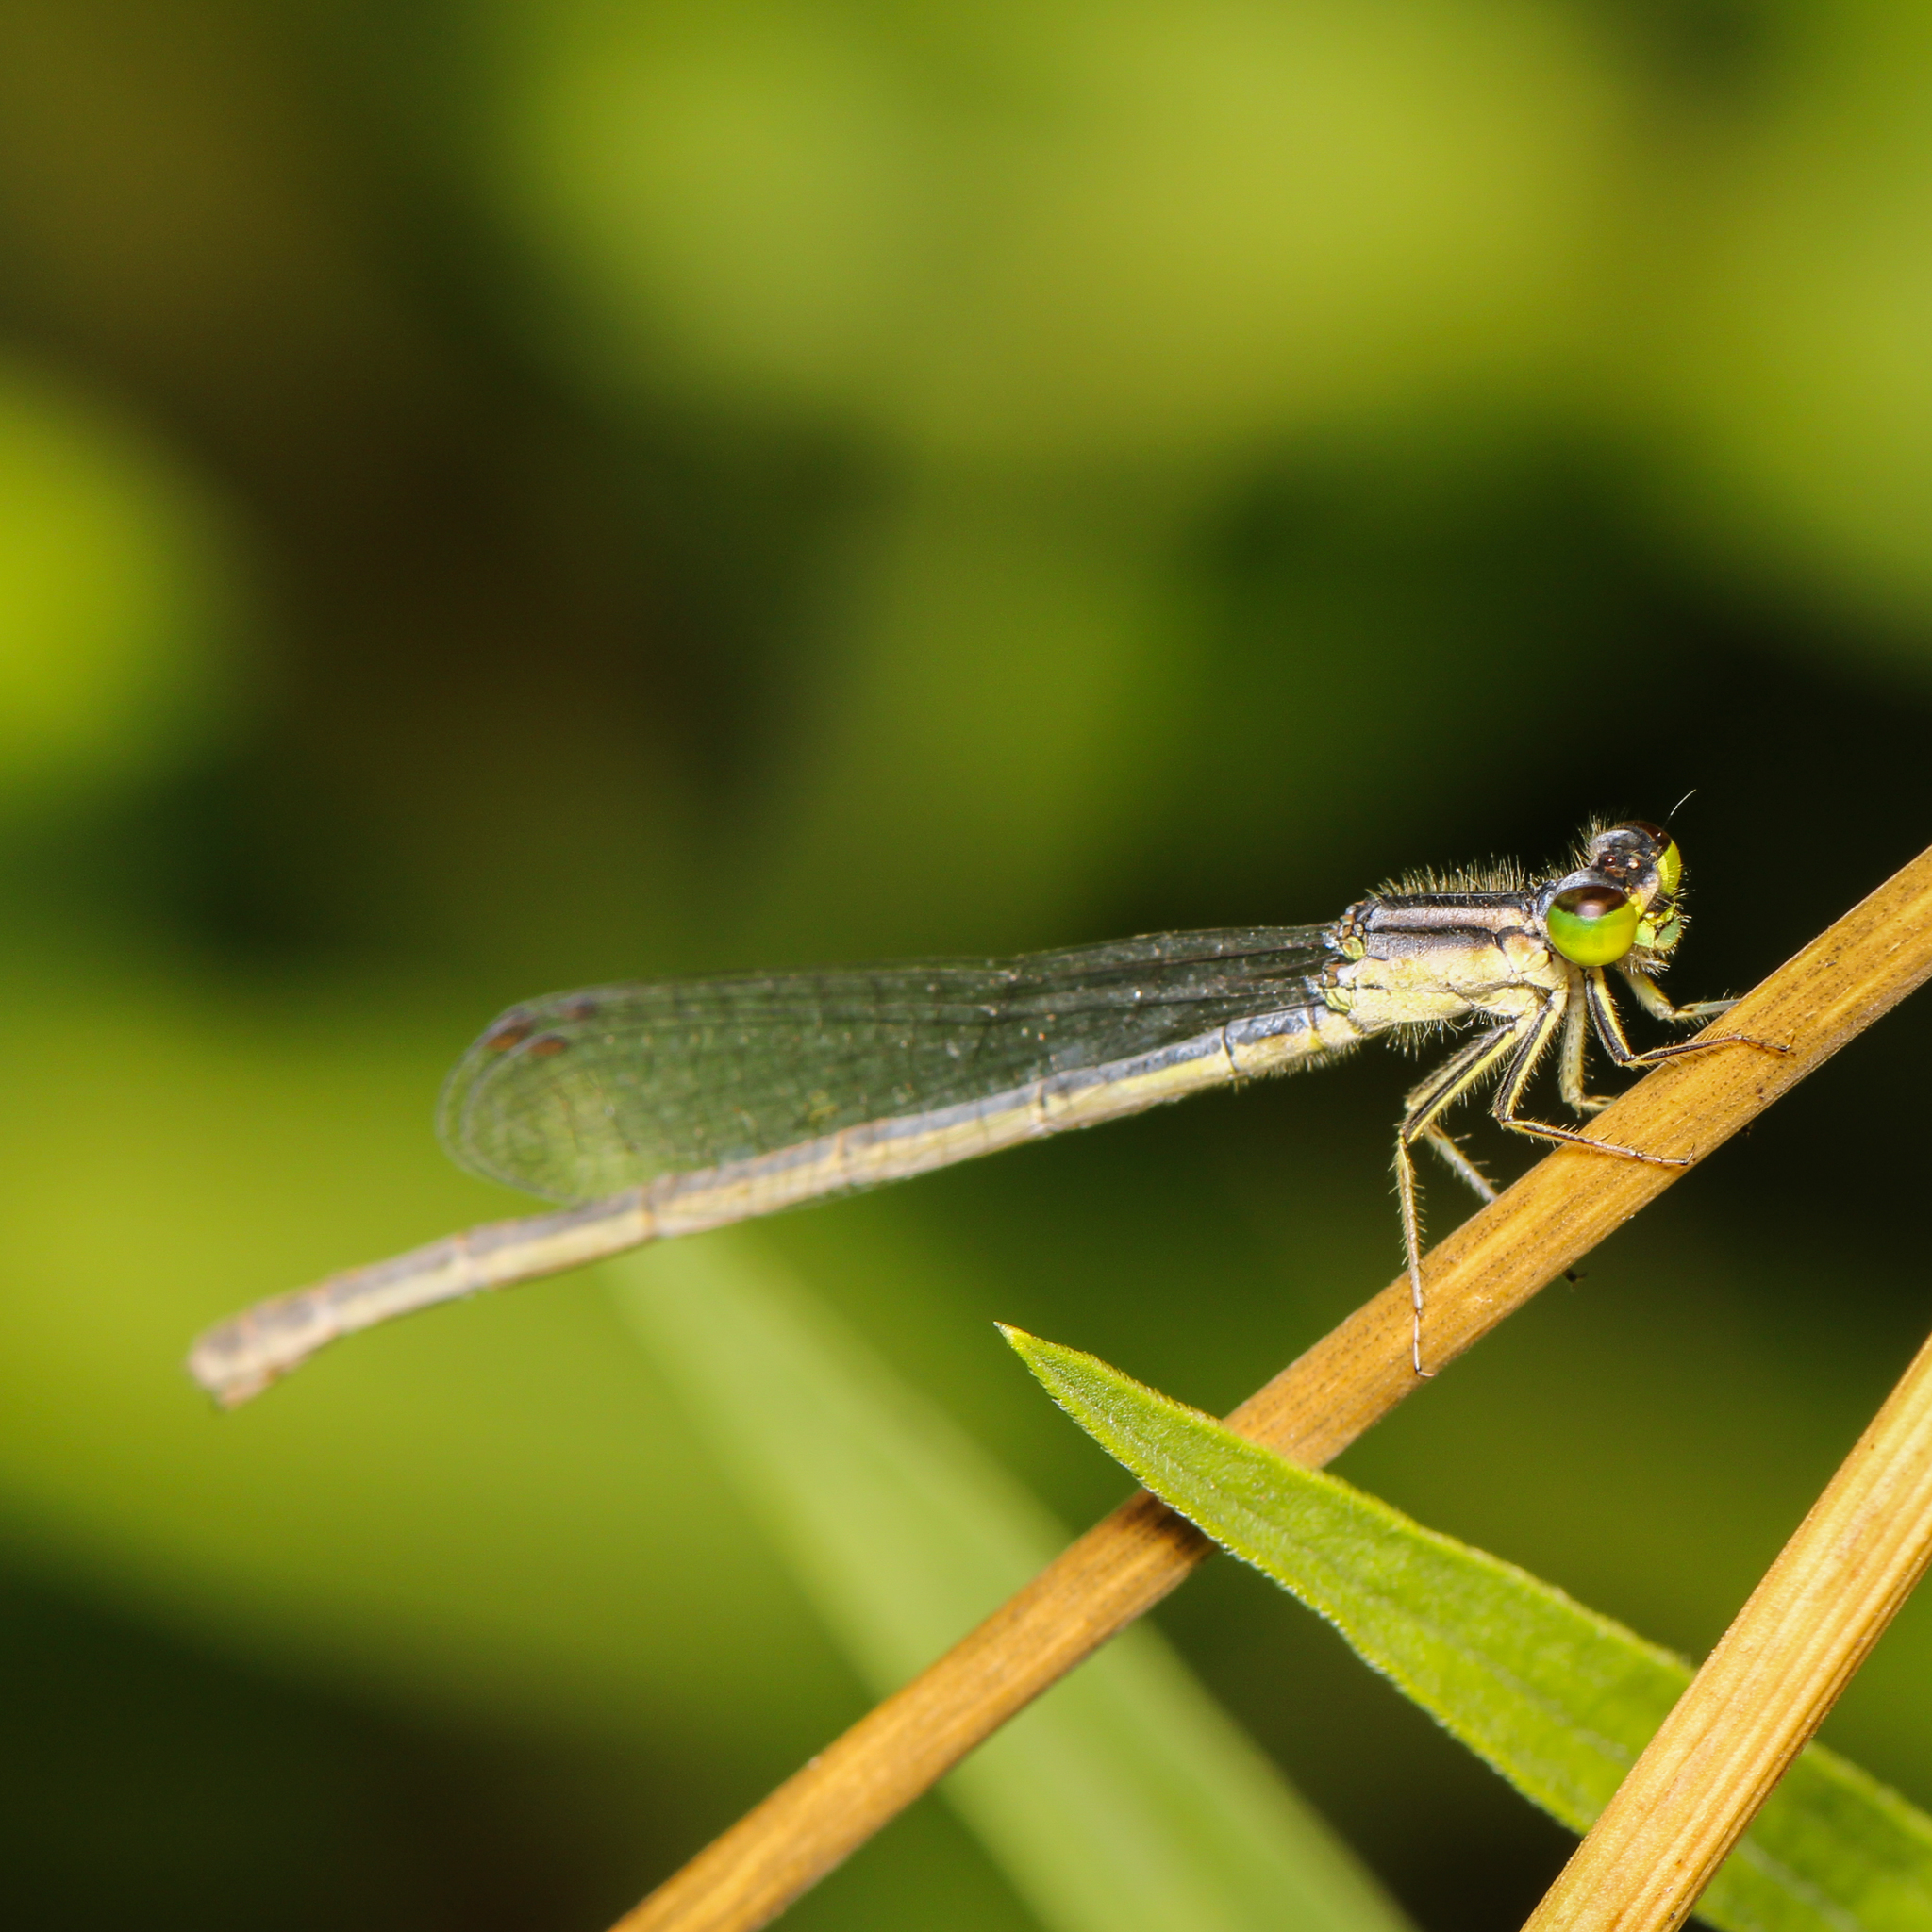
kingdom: Animalia
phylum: Arthropoda
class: Insecta
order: Odonata
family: Coenagrionidae
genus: Ischnura
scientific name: Ischnura verticalis
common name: Eastern forktail
